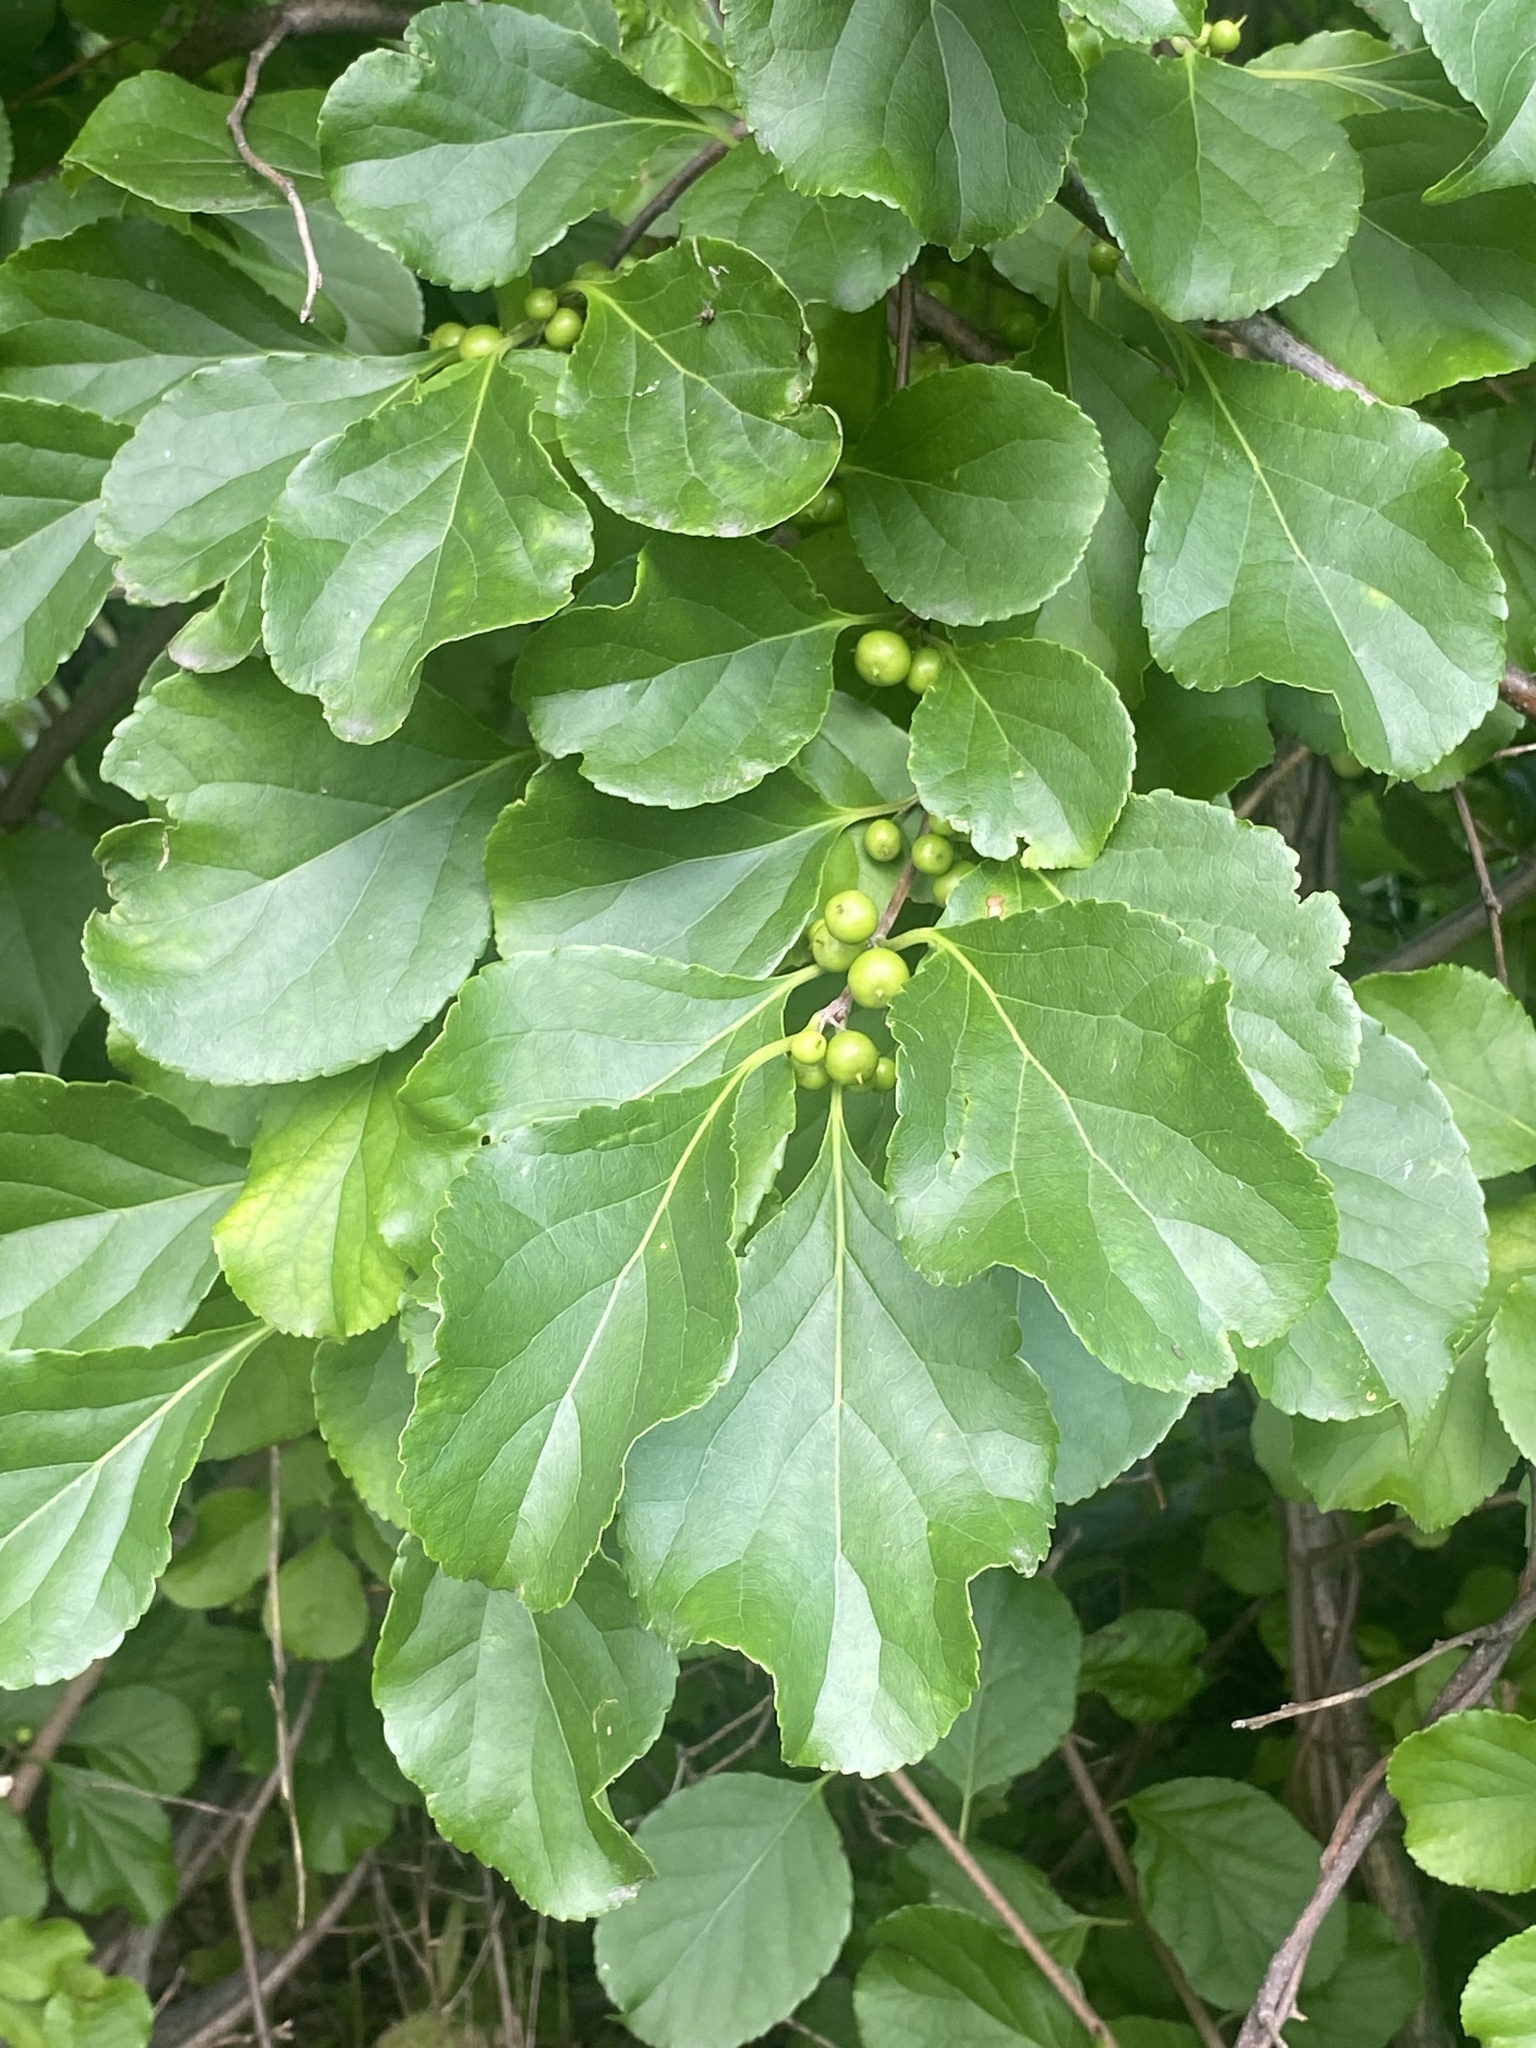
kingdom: Plantae
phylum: Tracheophyta
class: Magnoliopsida
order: Celastrales
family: Celastraceae
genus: Celastrus
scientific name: Celastrus orbiculatus
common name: Oriental bittersweet
